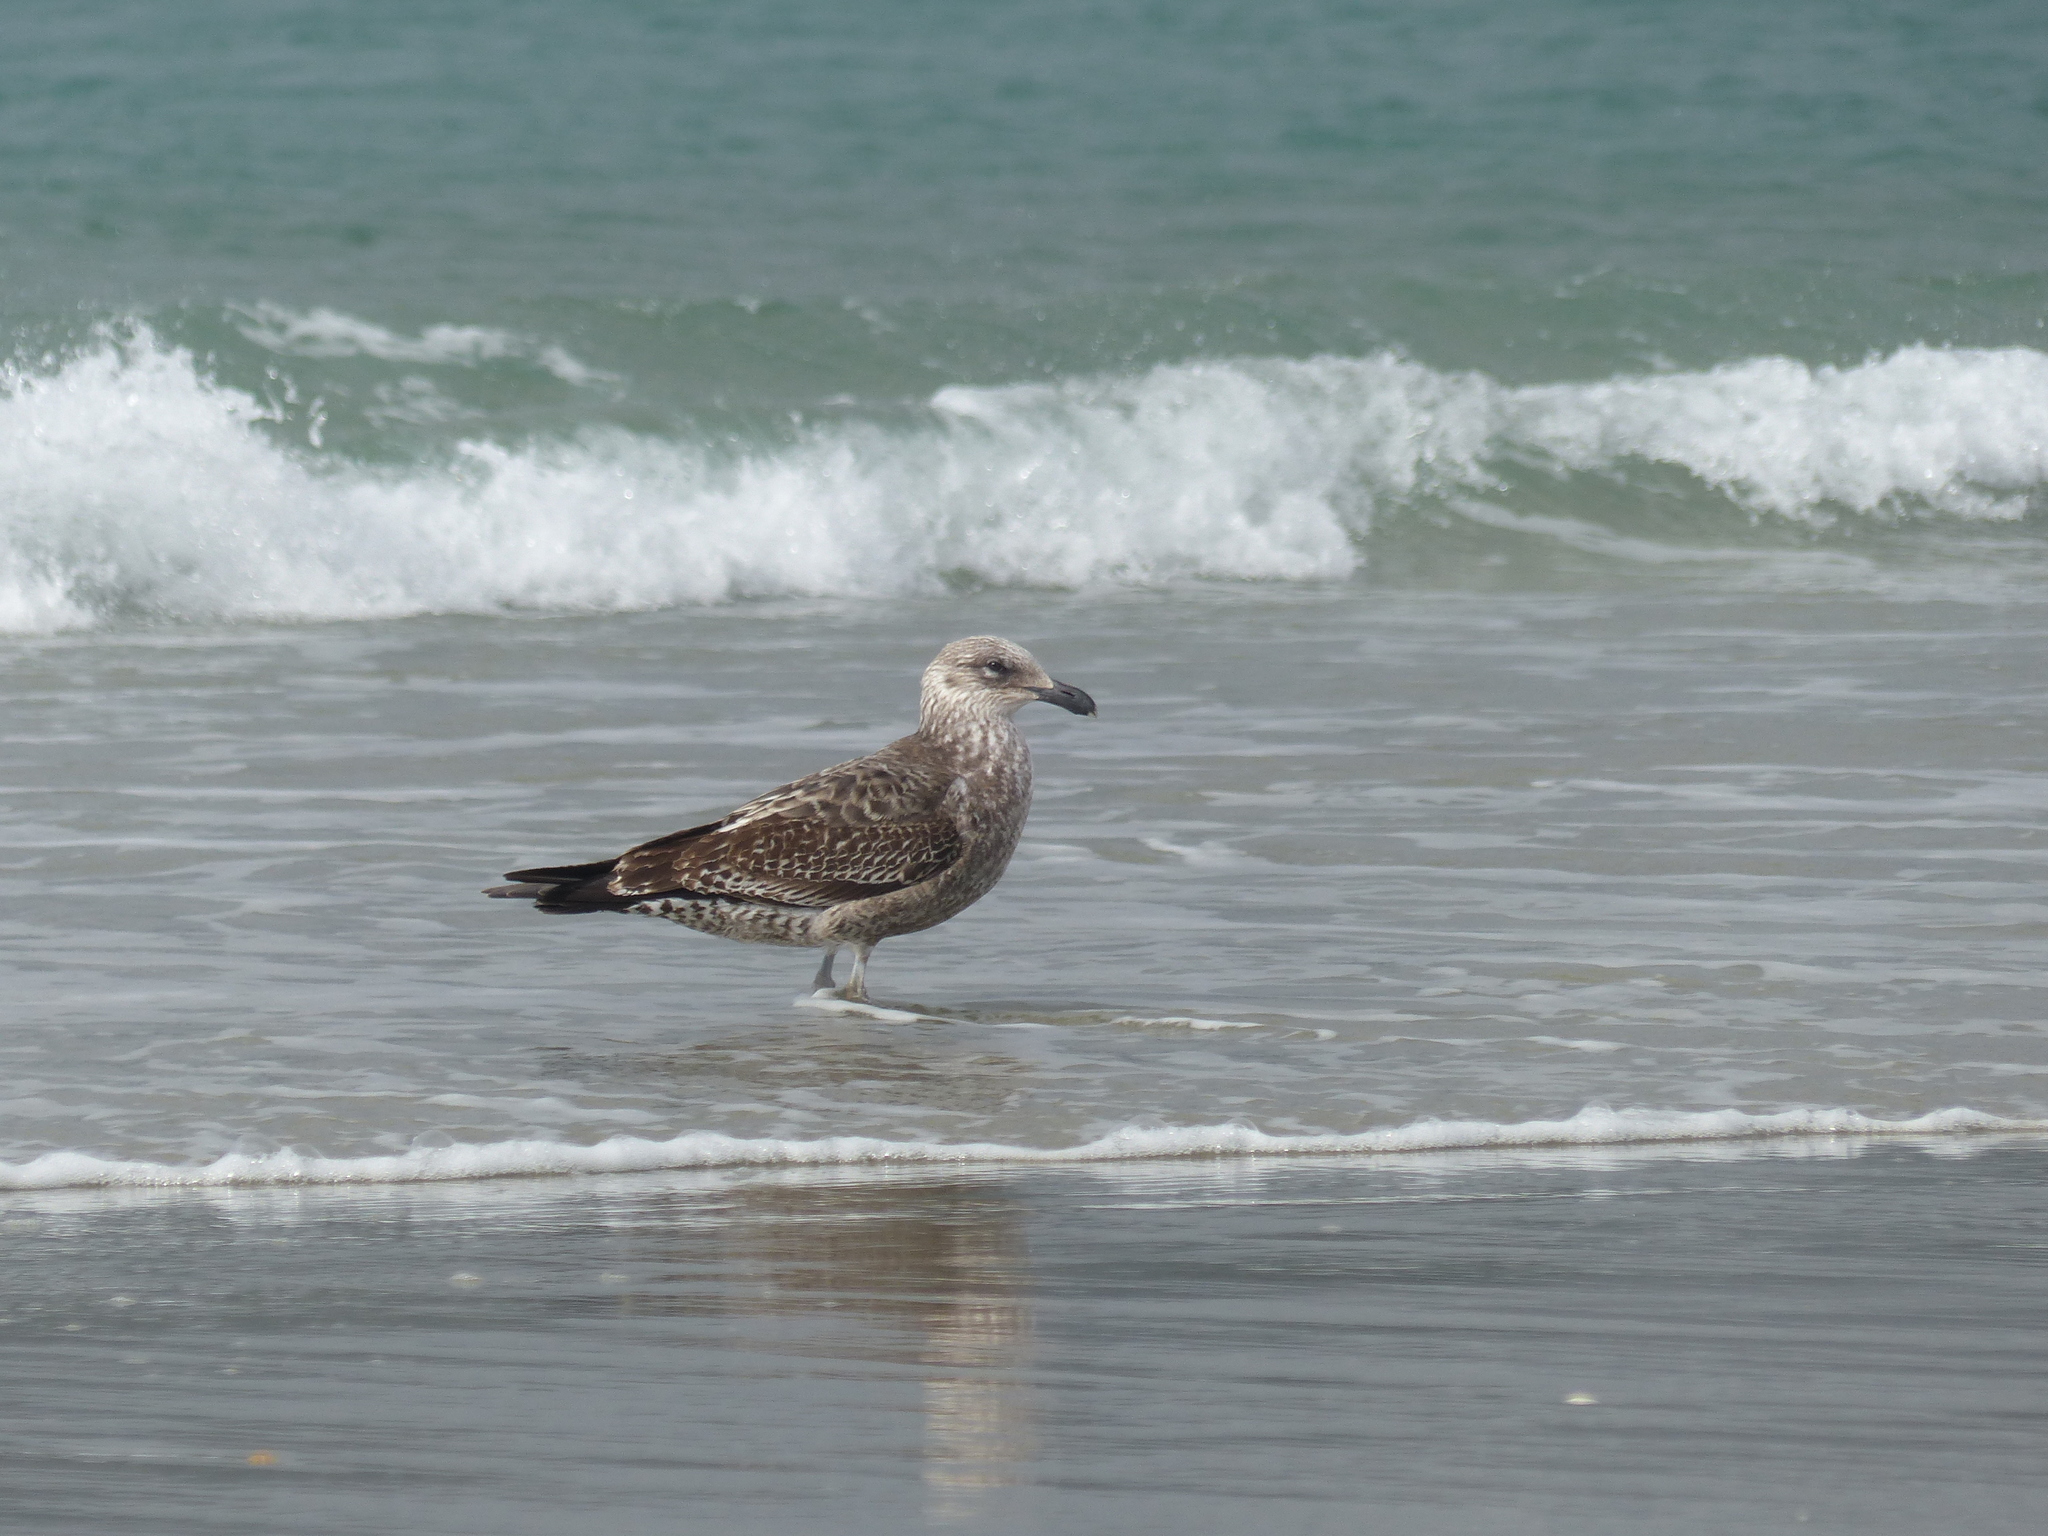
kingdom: Animalia
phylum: Chordata
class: Aves
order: Charadriiformes
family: Laridae
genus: Larus
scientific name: Larus dominicanus
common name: Kelp gull
